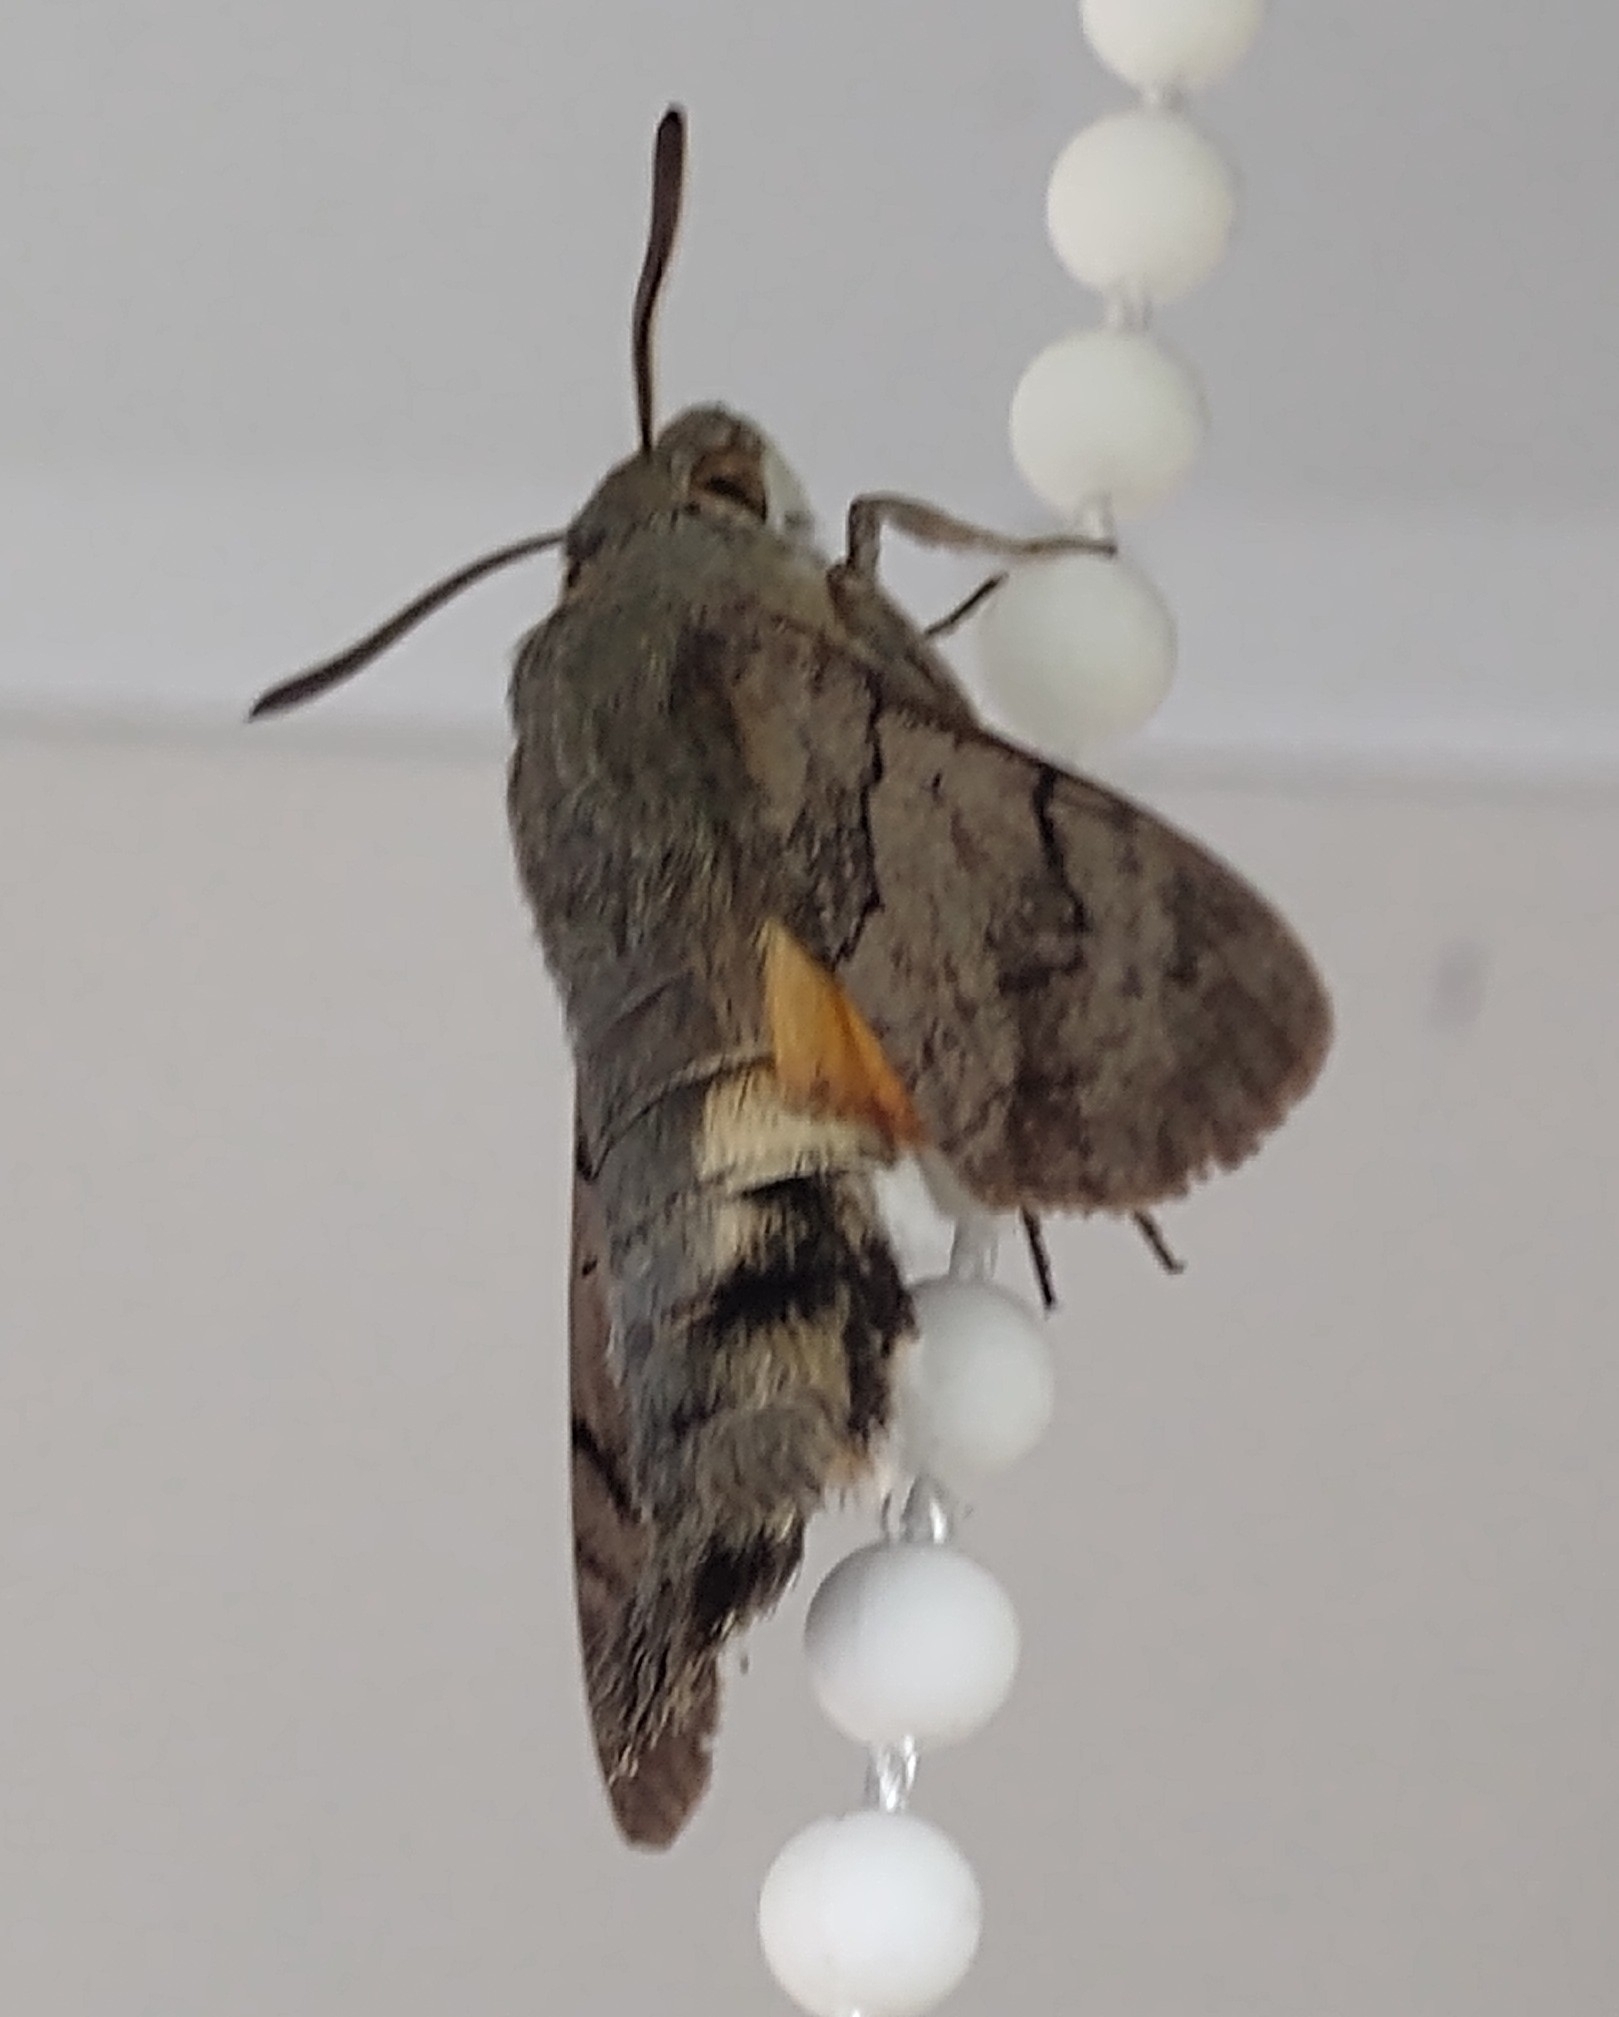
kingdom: Animalia
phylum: Arthropoda
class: Insecta
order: Lepidoptera
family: Sphingidae
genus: Macroglossum
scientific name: Macroglossum stellatarum
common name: Humming-bird hawk-moth
